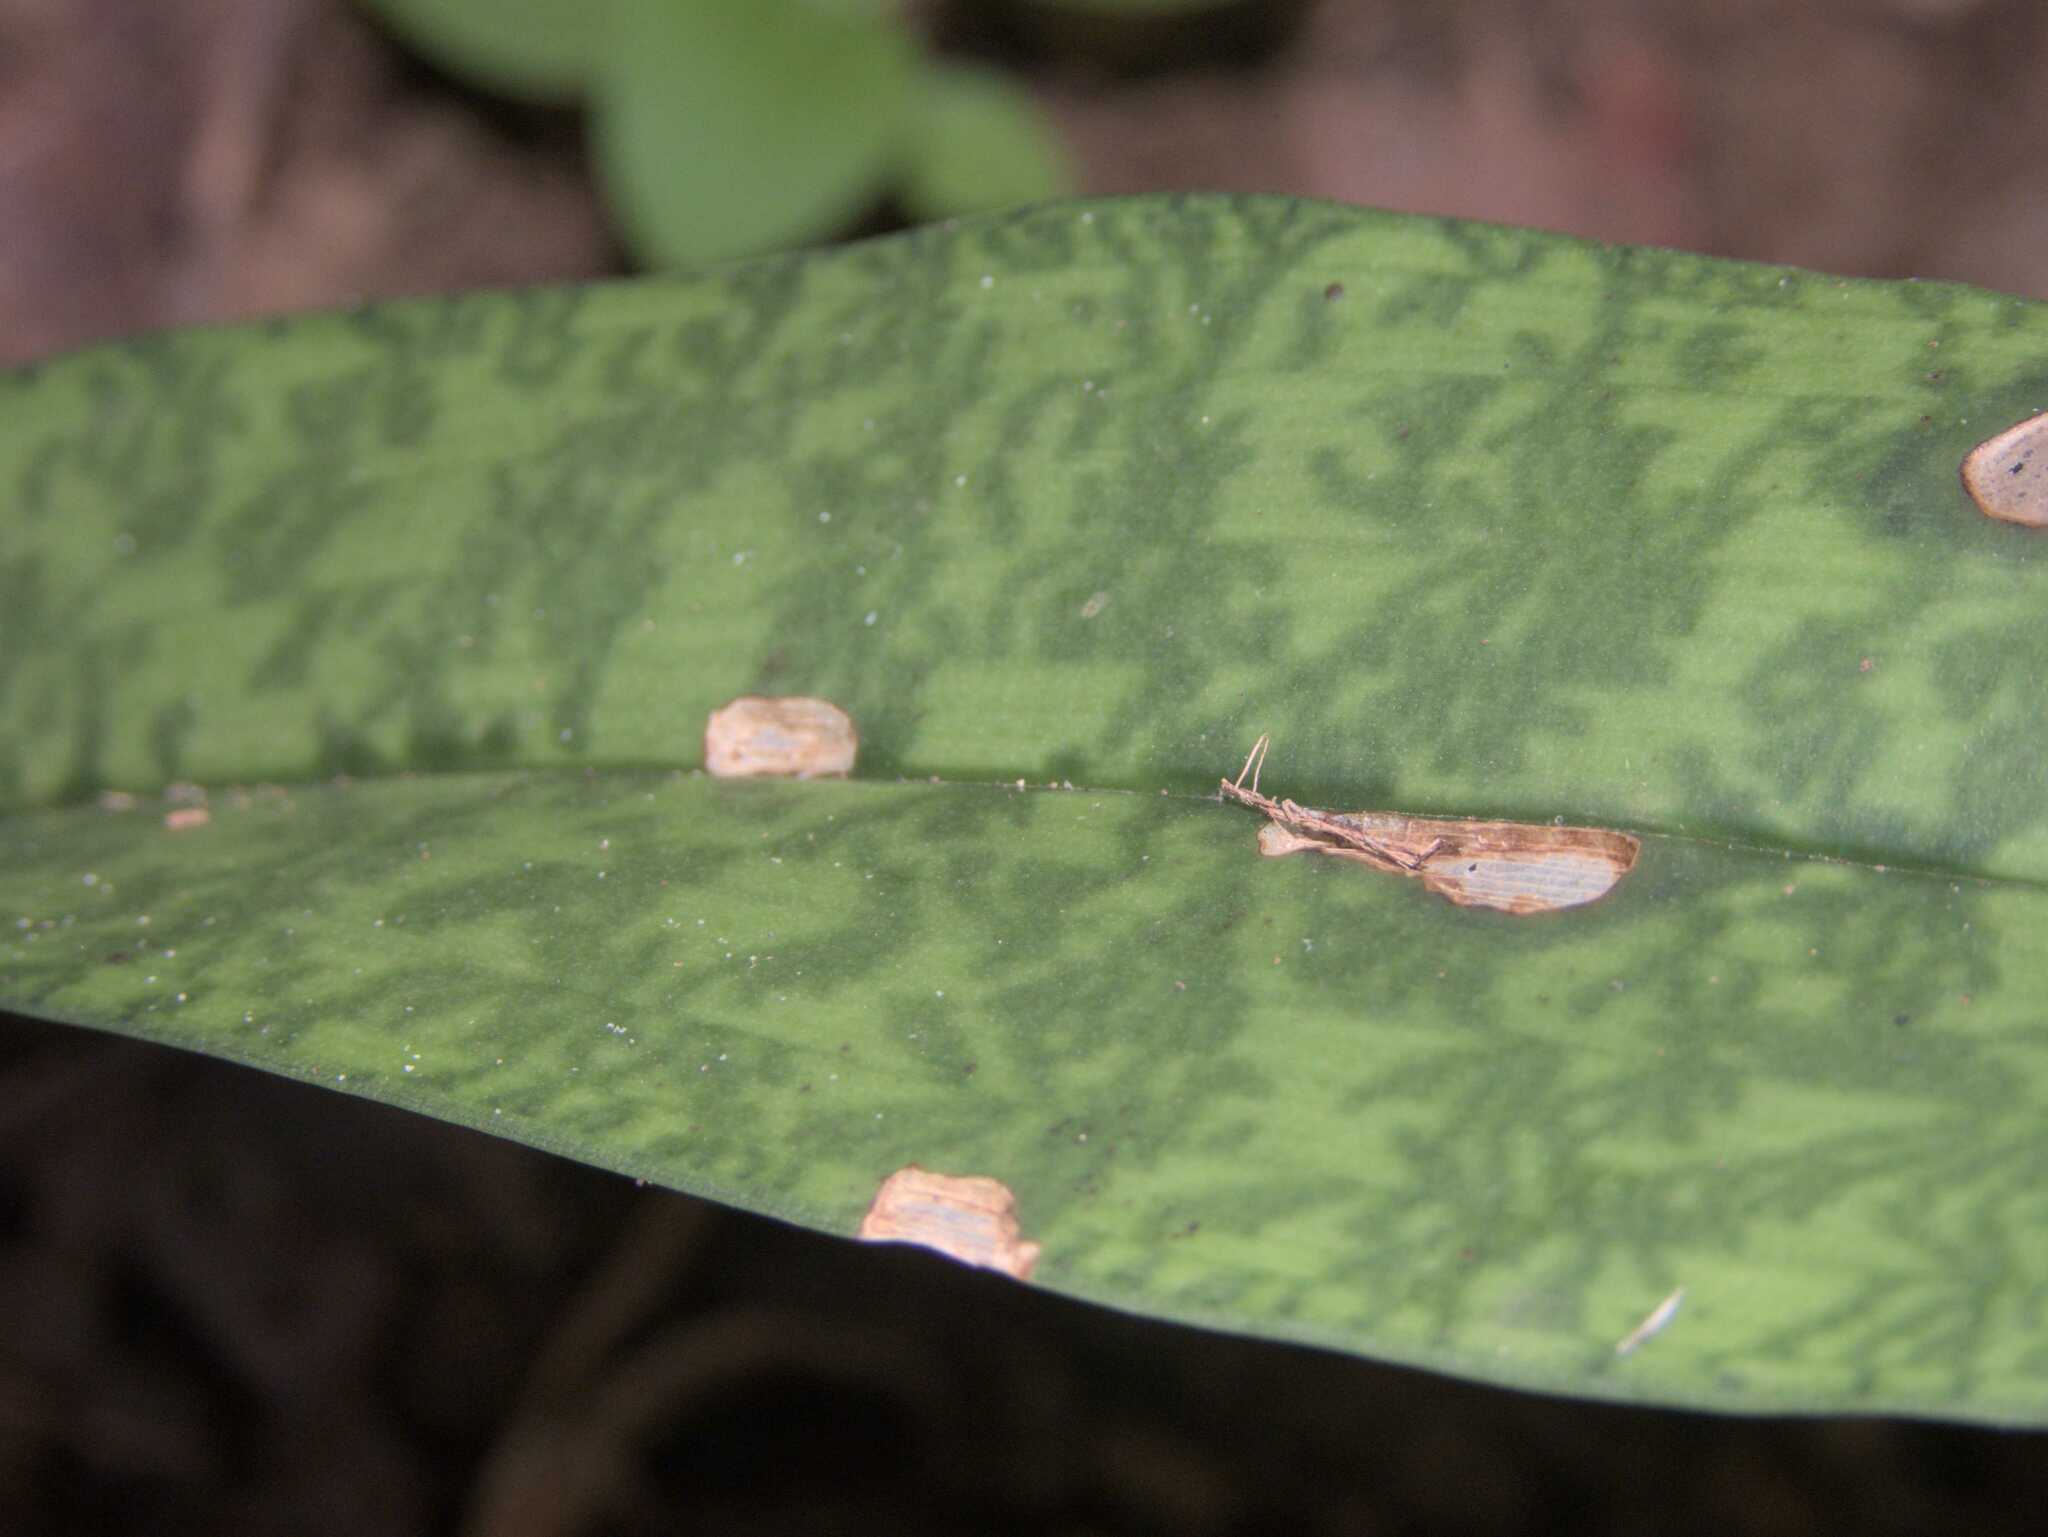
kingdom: Plantae
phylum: Tracheophyta
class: Liliopsida
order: Asparagales
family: Orchidaceae
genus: Eulophia
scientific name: Eulophia maculata
